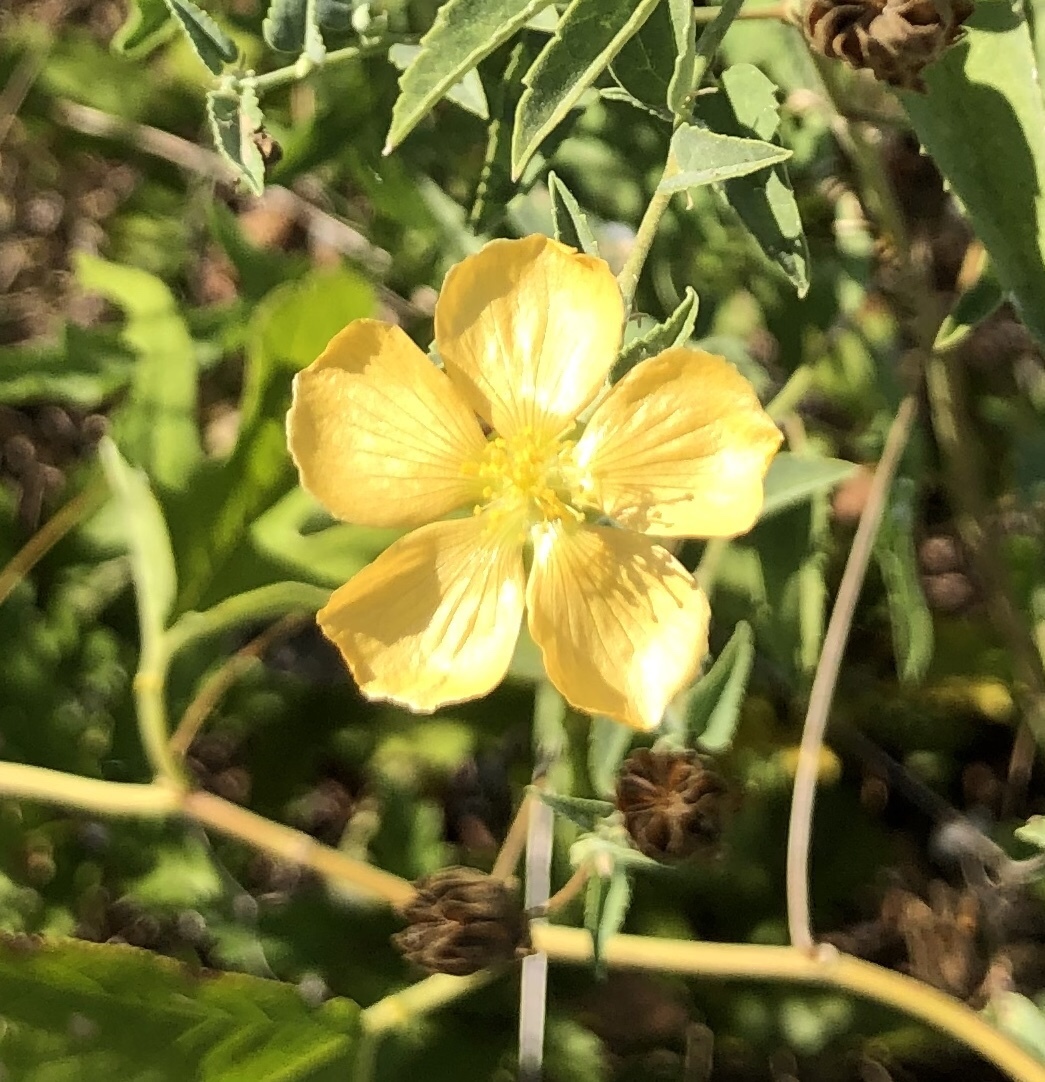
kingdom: Plantae
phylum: Tracheophyta
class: Magnoliopsida
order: Malvales
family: Malvaceae
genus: Abutilon
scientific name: Abutilon fruticosum
